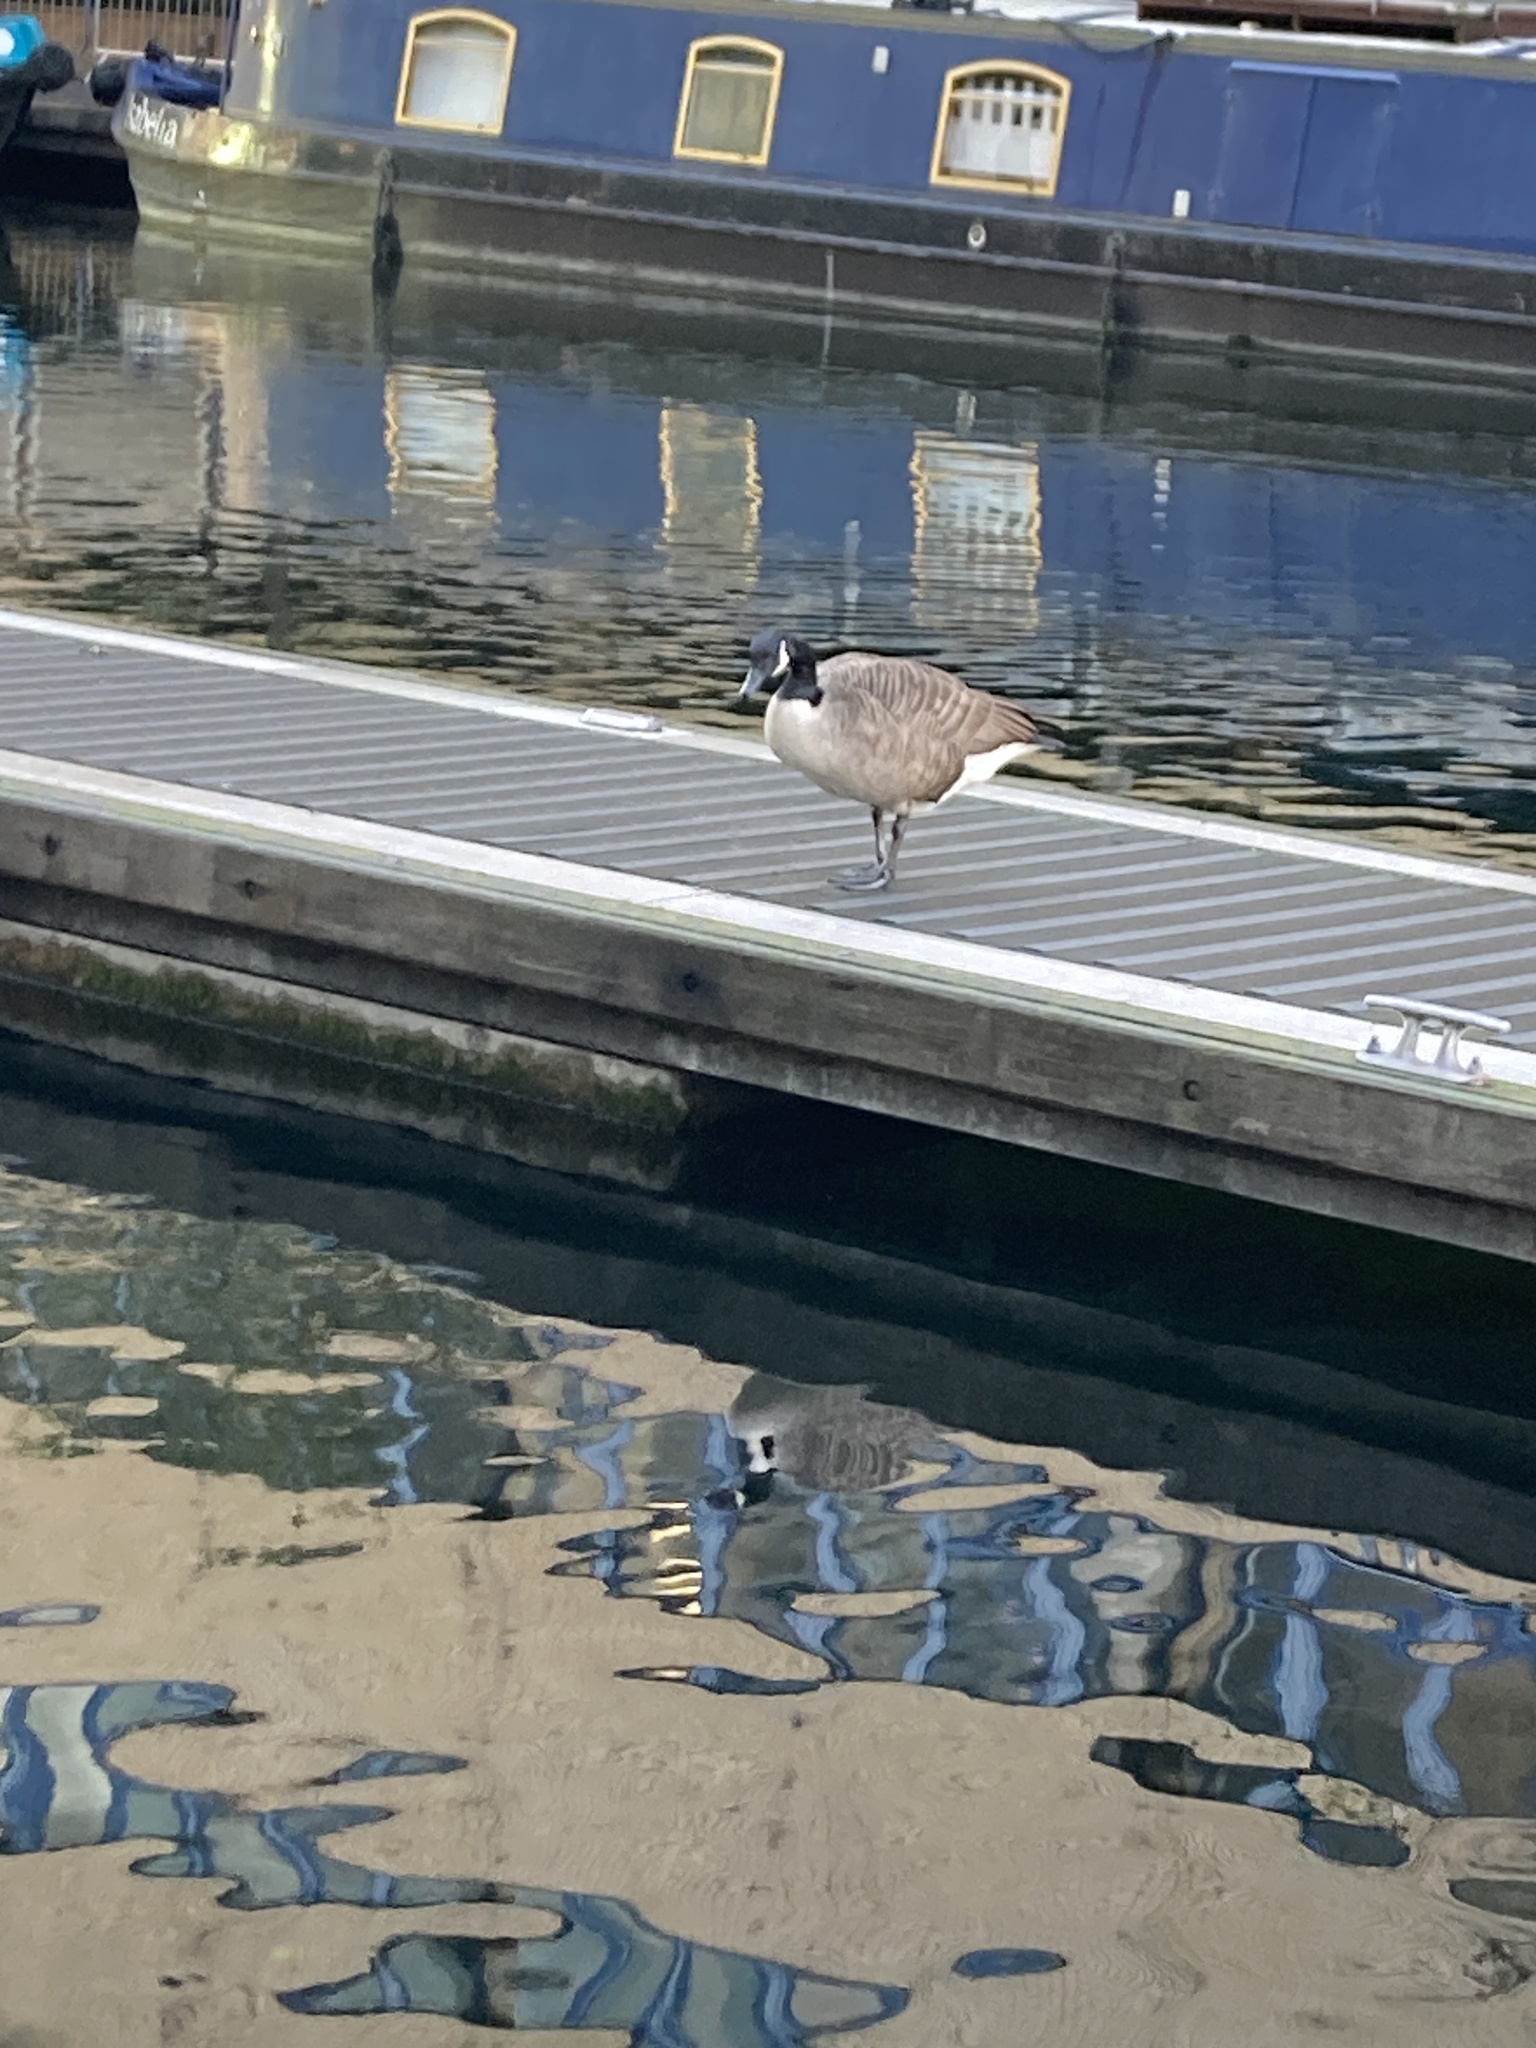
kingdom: Animalia
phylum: Chordata
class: Aves
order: Anseriformes
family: Anatidae
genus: Branta
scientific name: Branta canadensis
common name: Canada goose
